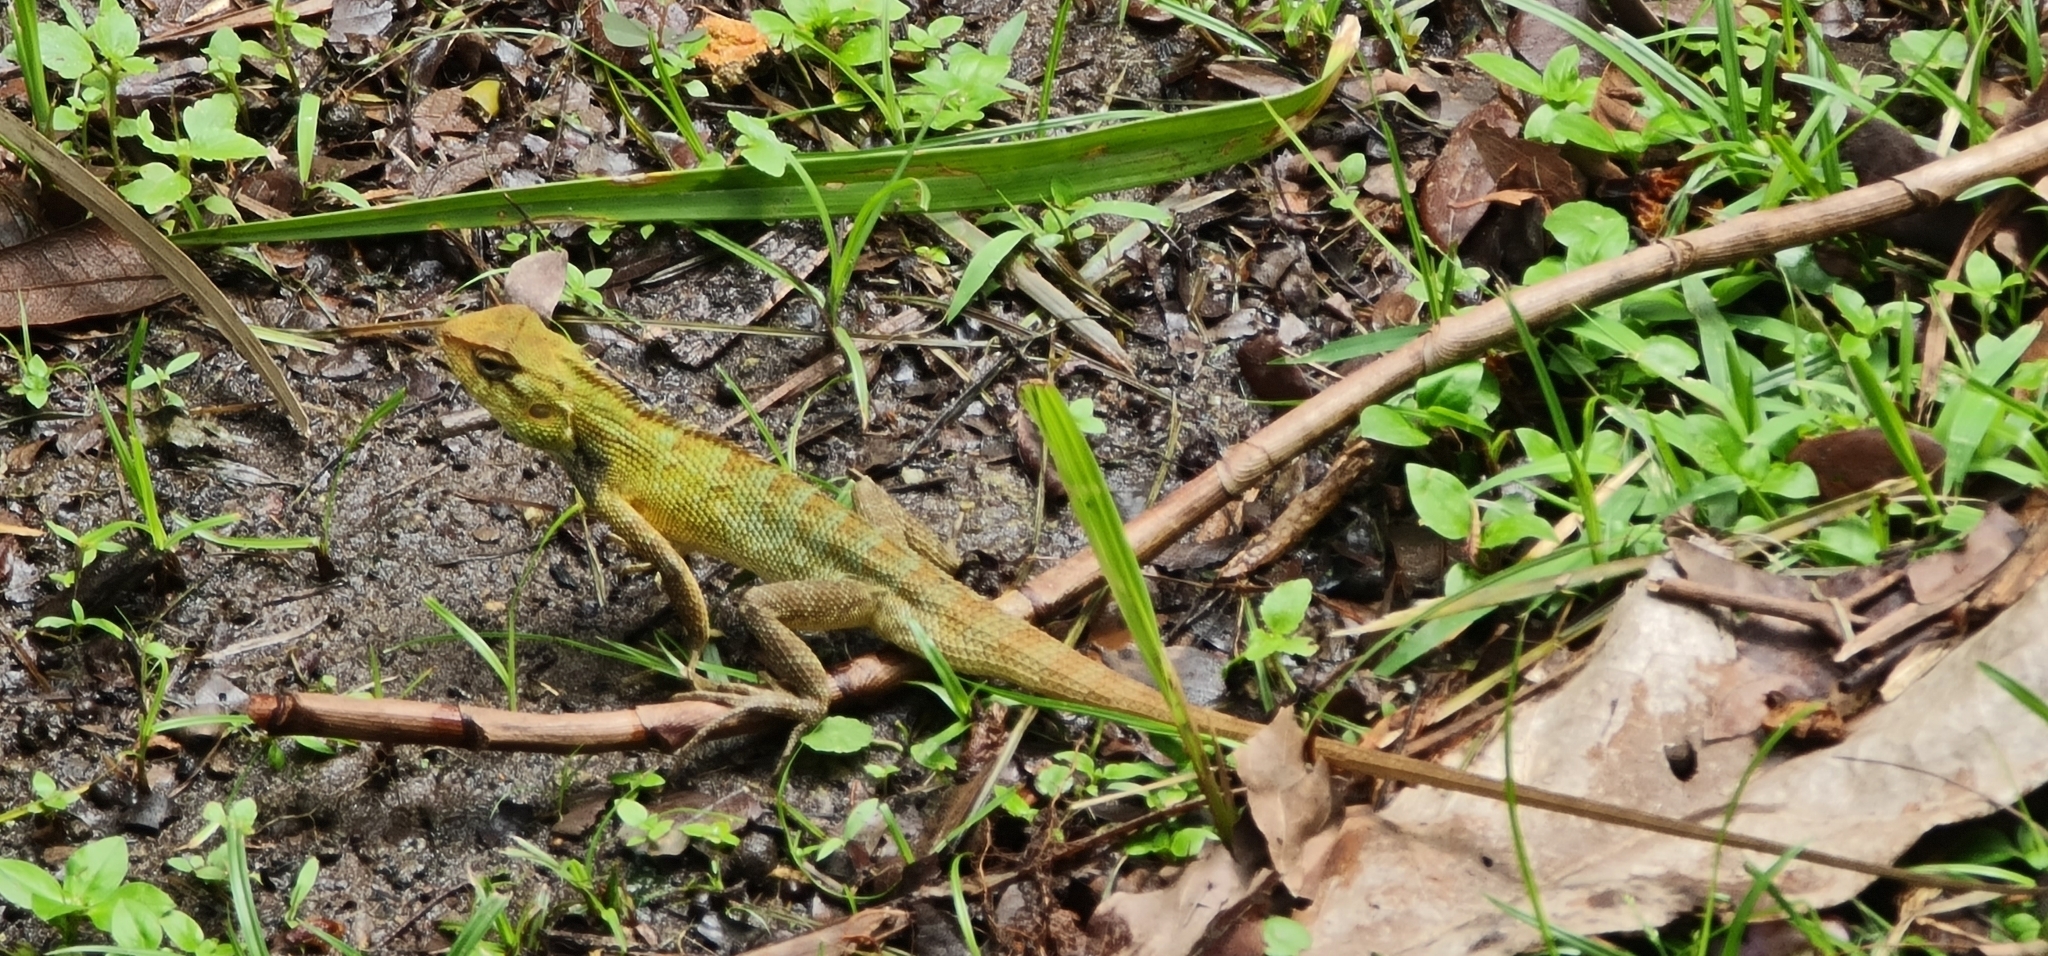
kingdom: Animalia
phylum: Chordata
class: Squamata
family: Agamidae
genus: Calotes
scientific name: Calotes versicolor
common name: Oriental garden lizard
